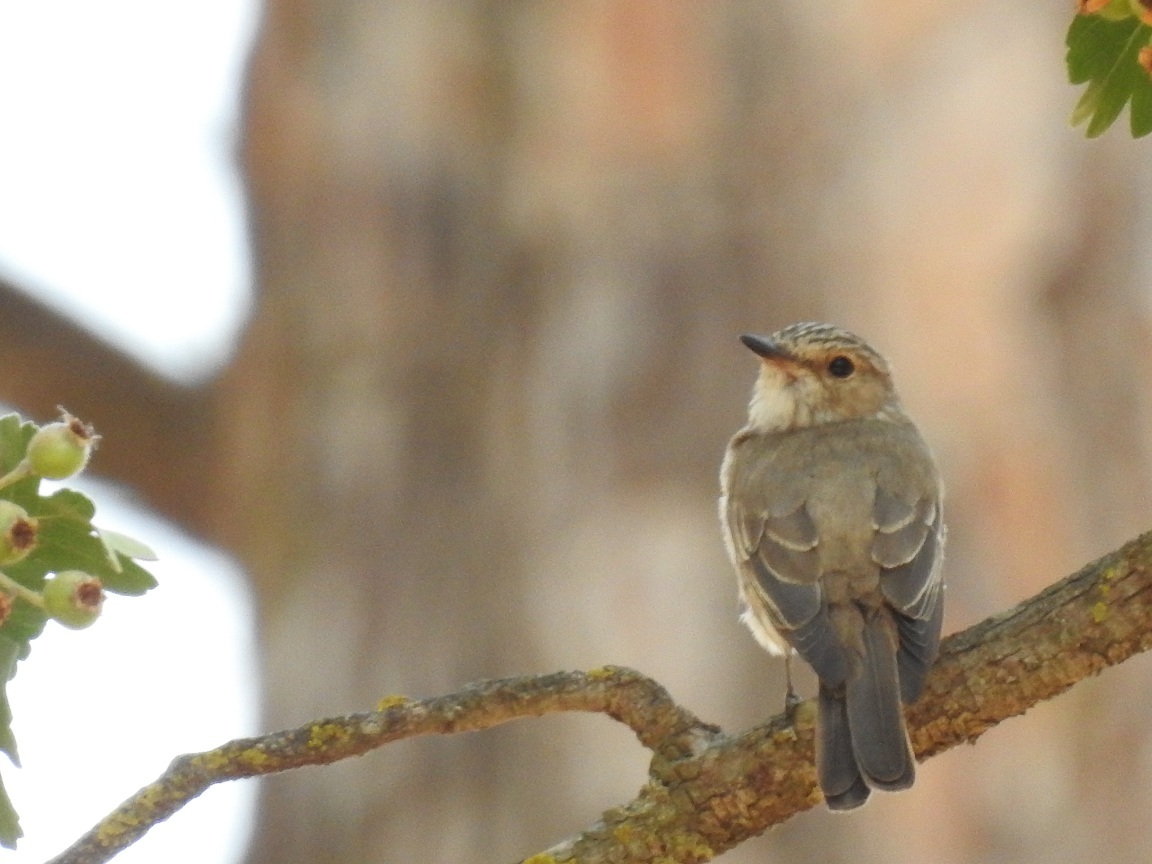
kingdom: Animalia
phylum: Chordata
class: Aves
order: Passeriformes
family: Muscicapidae
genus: Muscicapa
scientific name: Muscicapa striata
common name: Spotted flycatcher
